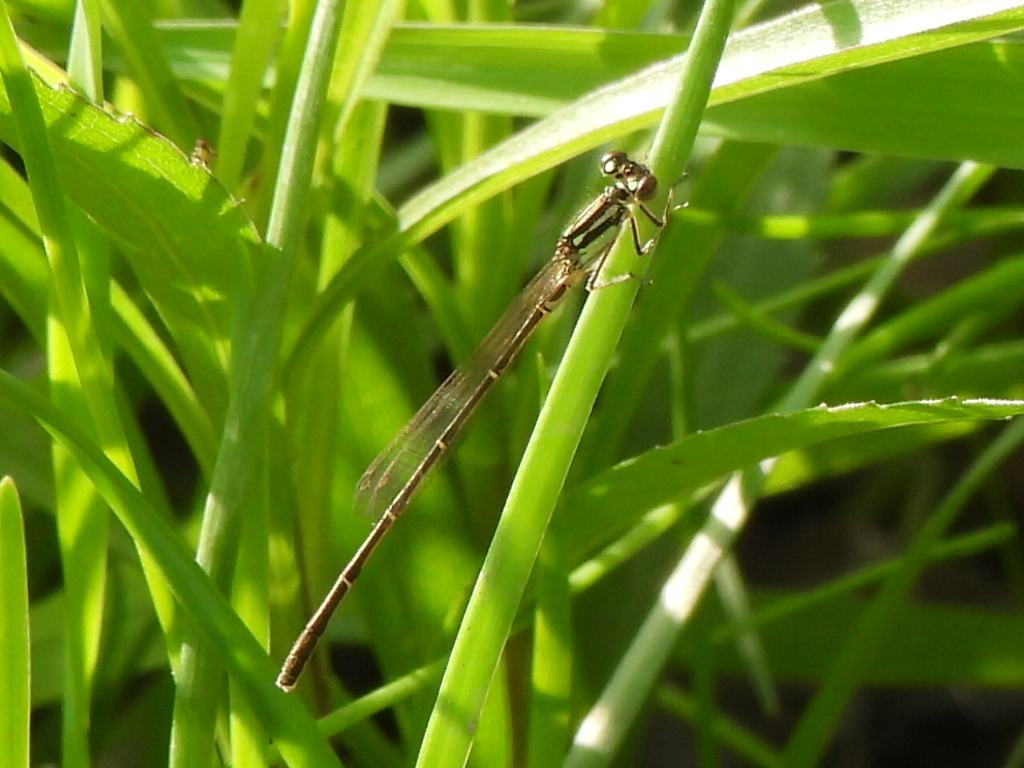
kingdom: Animalia
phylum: Arthropoda
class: Insecta
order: Odonata
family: Coenagrionidae
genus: Ischnura
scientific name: Ischnura posita
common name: Fragile forktail
